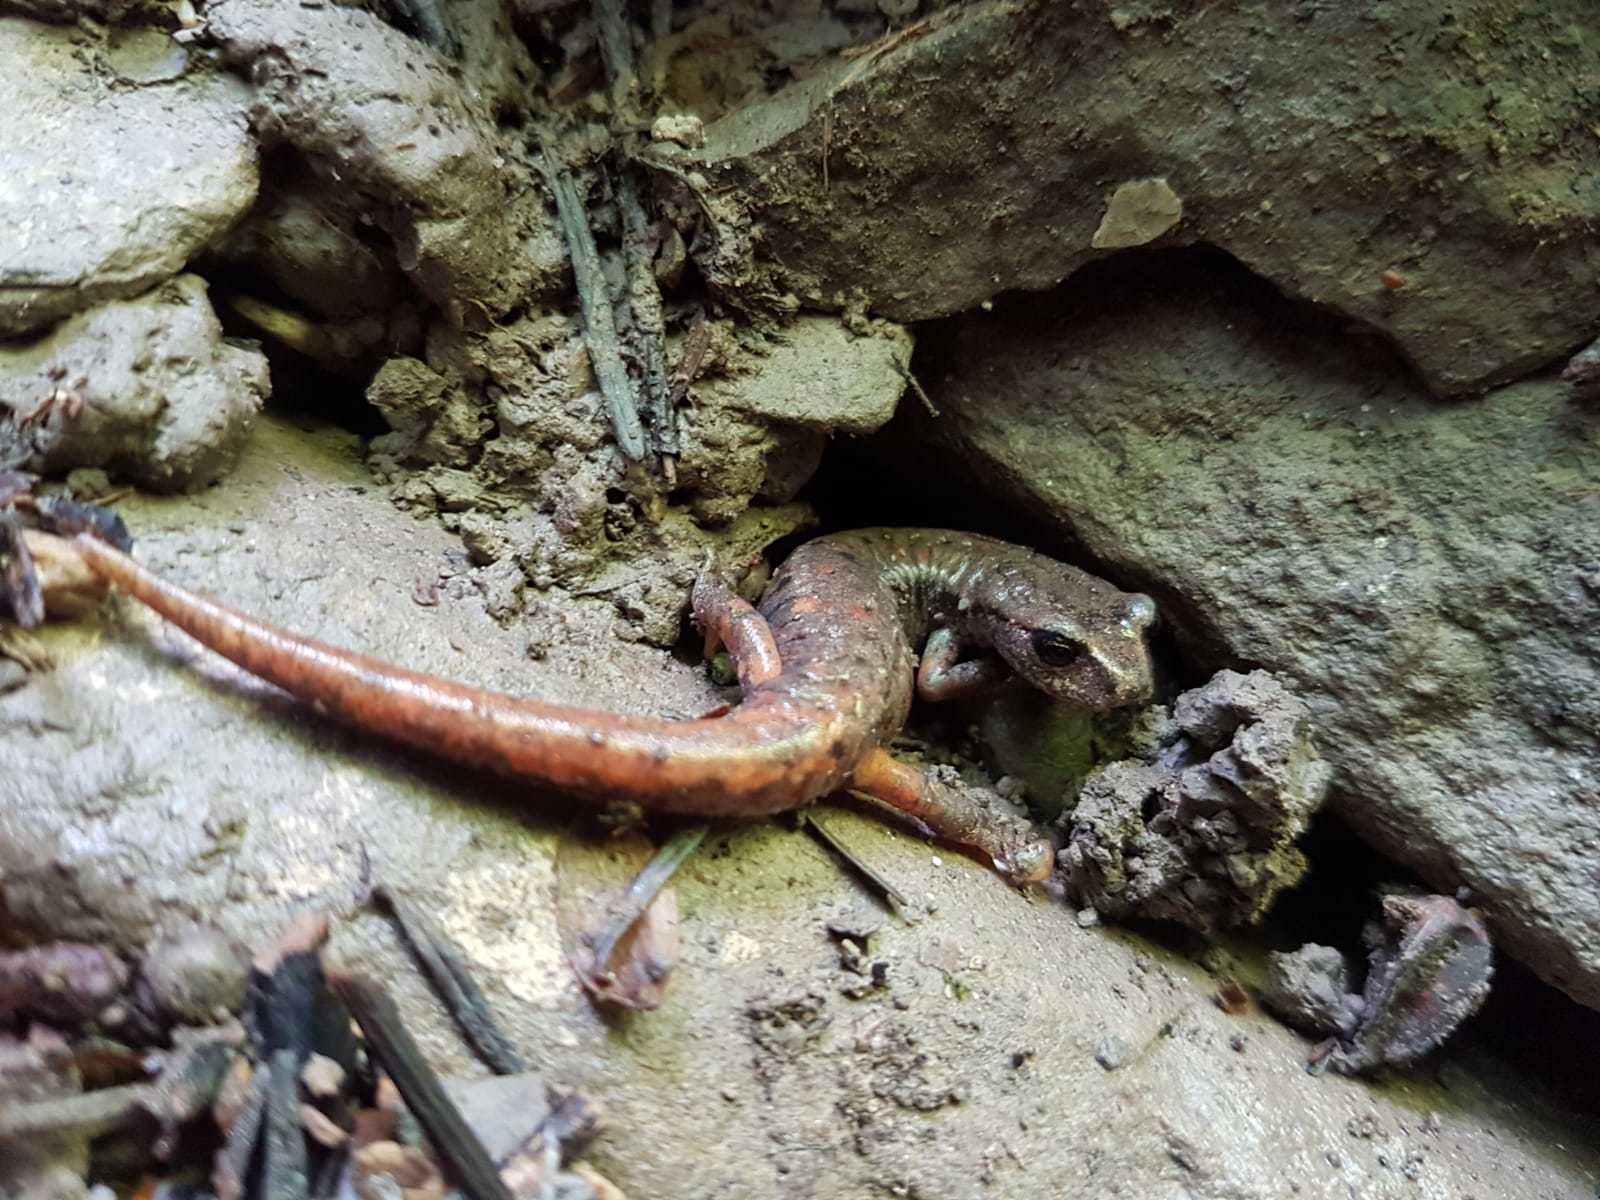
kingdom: Animalia
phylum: Chordata
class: Amphibia
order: Caudata
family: Plethodontidae
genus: Speleomantes
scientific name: Speleomantes italicus
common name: Italian cave salamander
